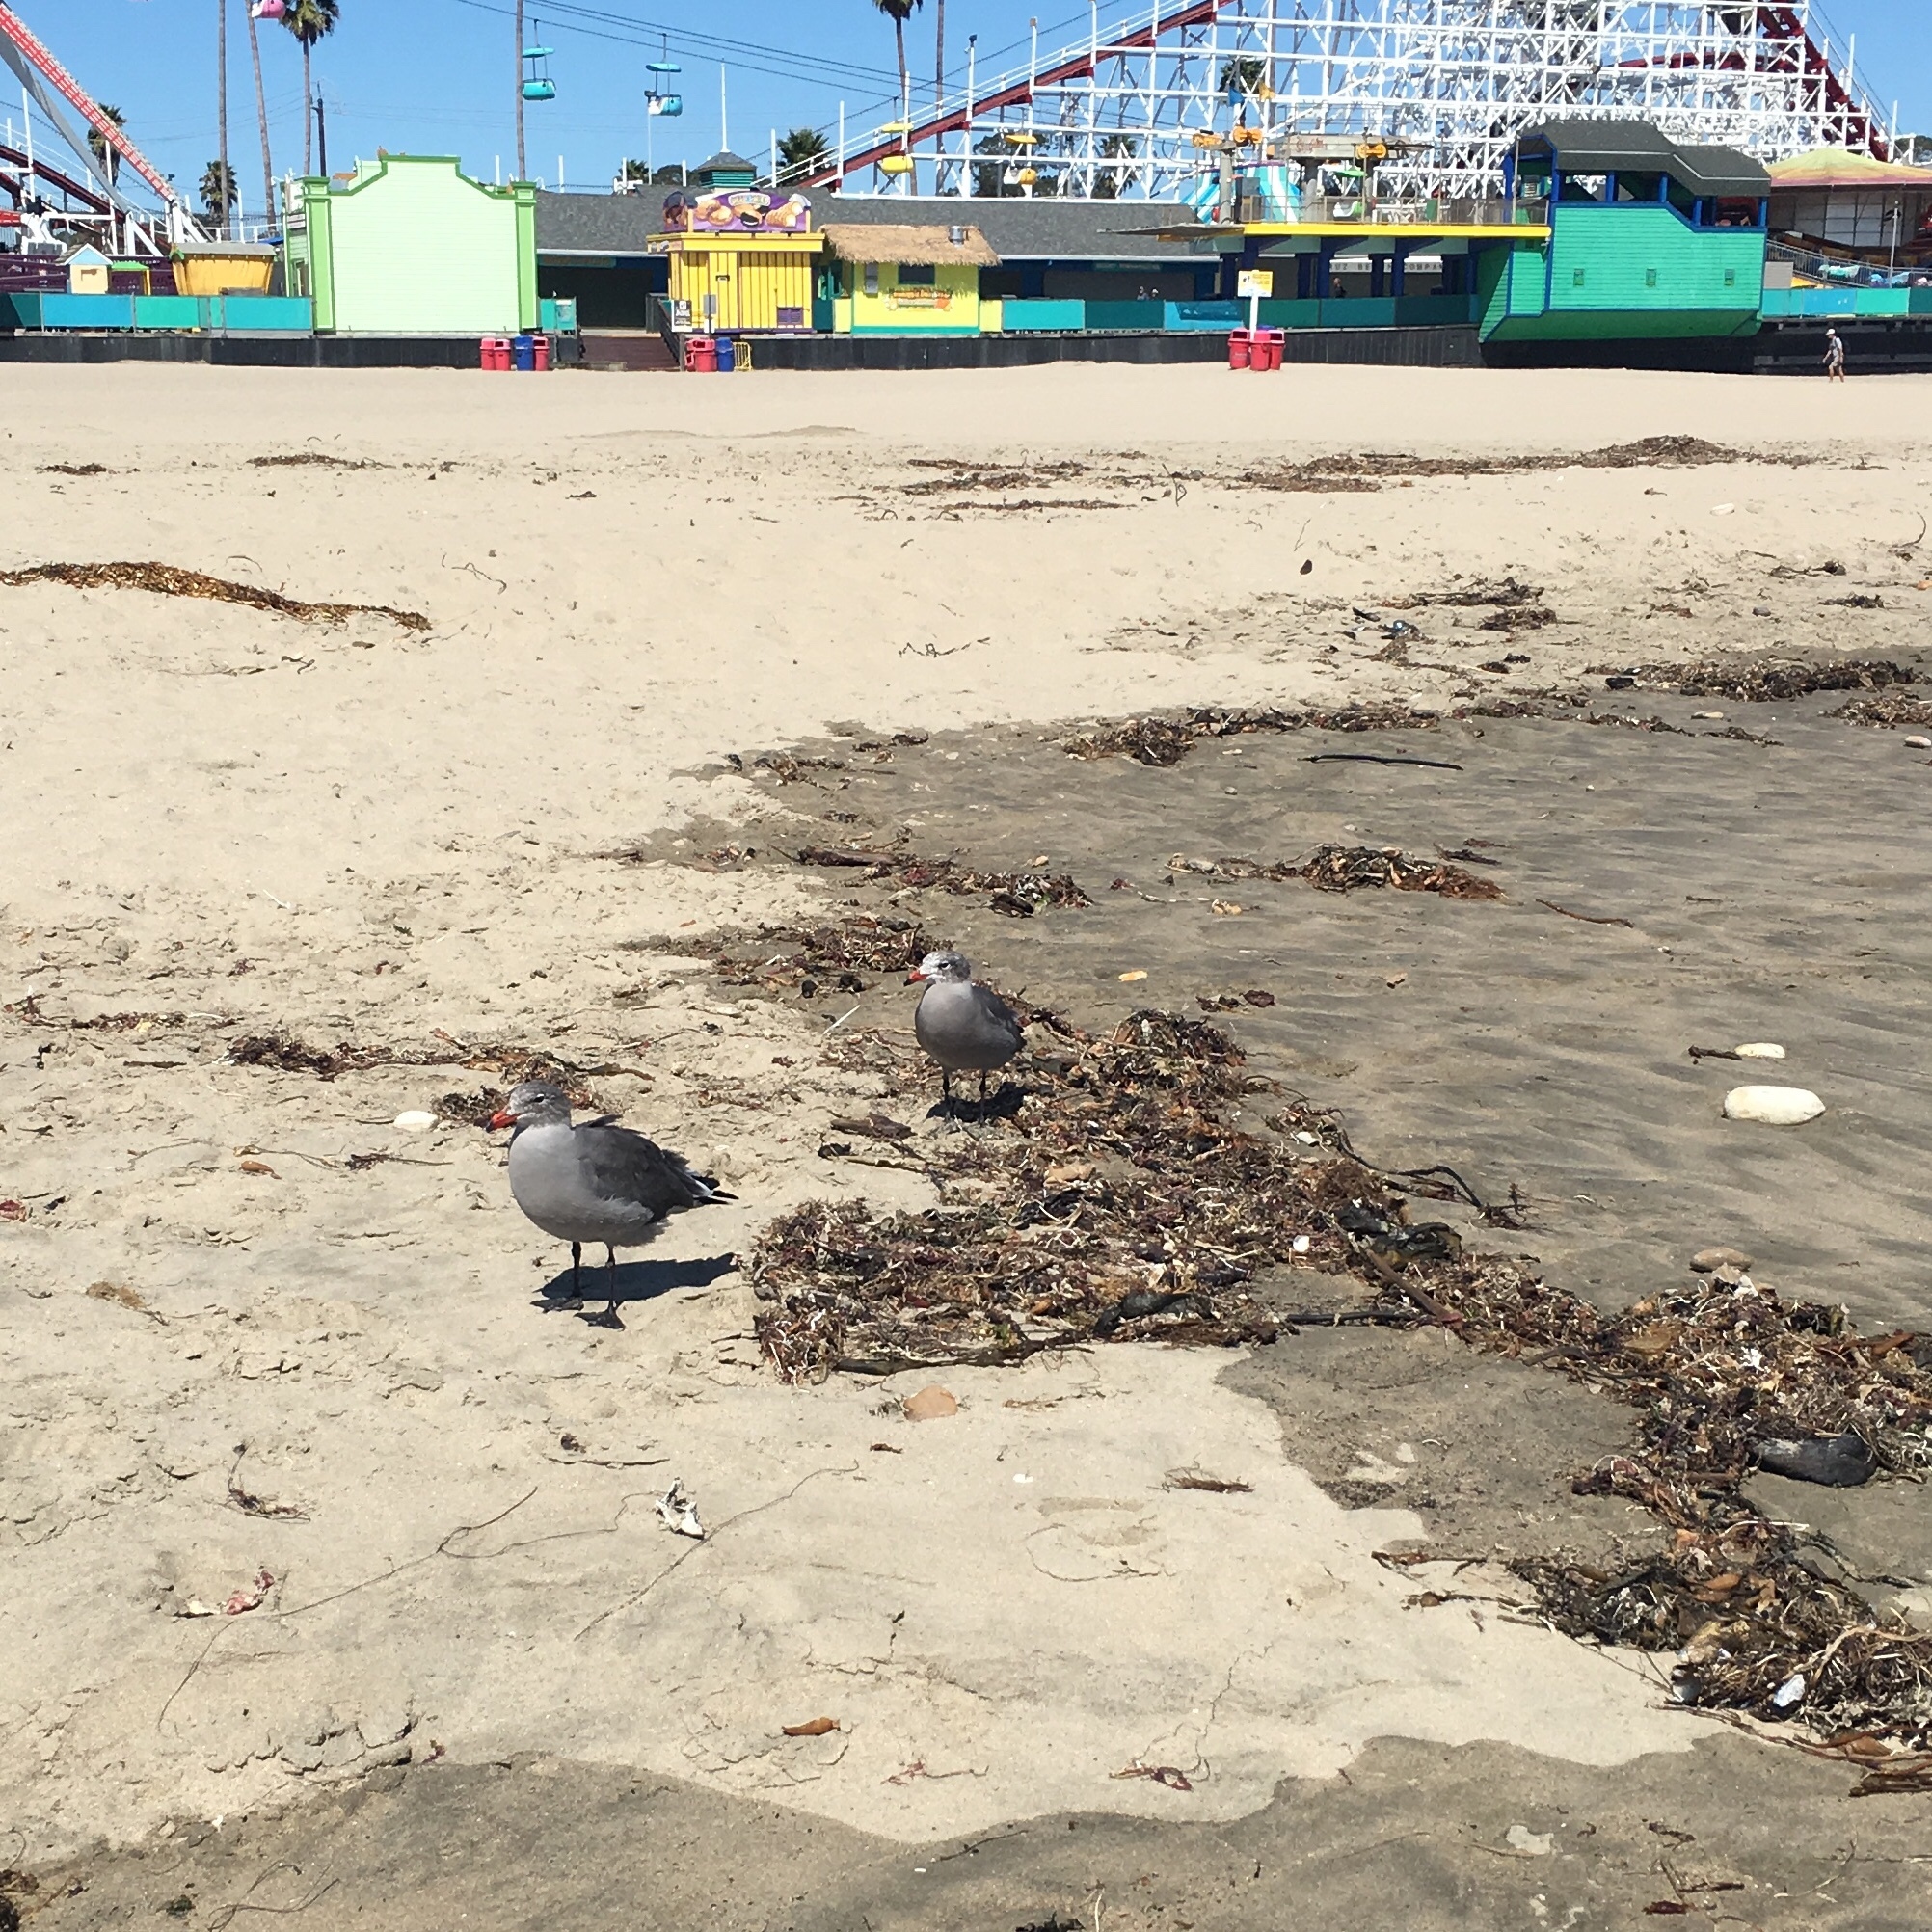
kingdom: Animalia
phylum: Chordata
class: Aves
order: Charadriiformes
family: Laridae
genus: Larus
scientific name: Larus heermanni
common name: Heermann's gull
